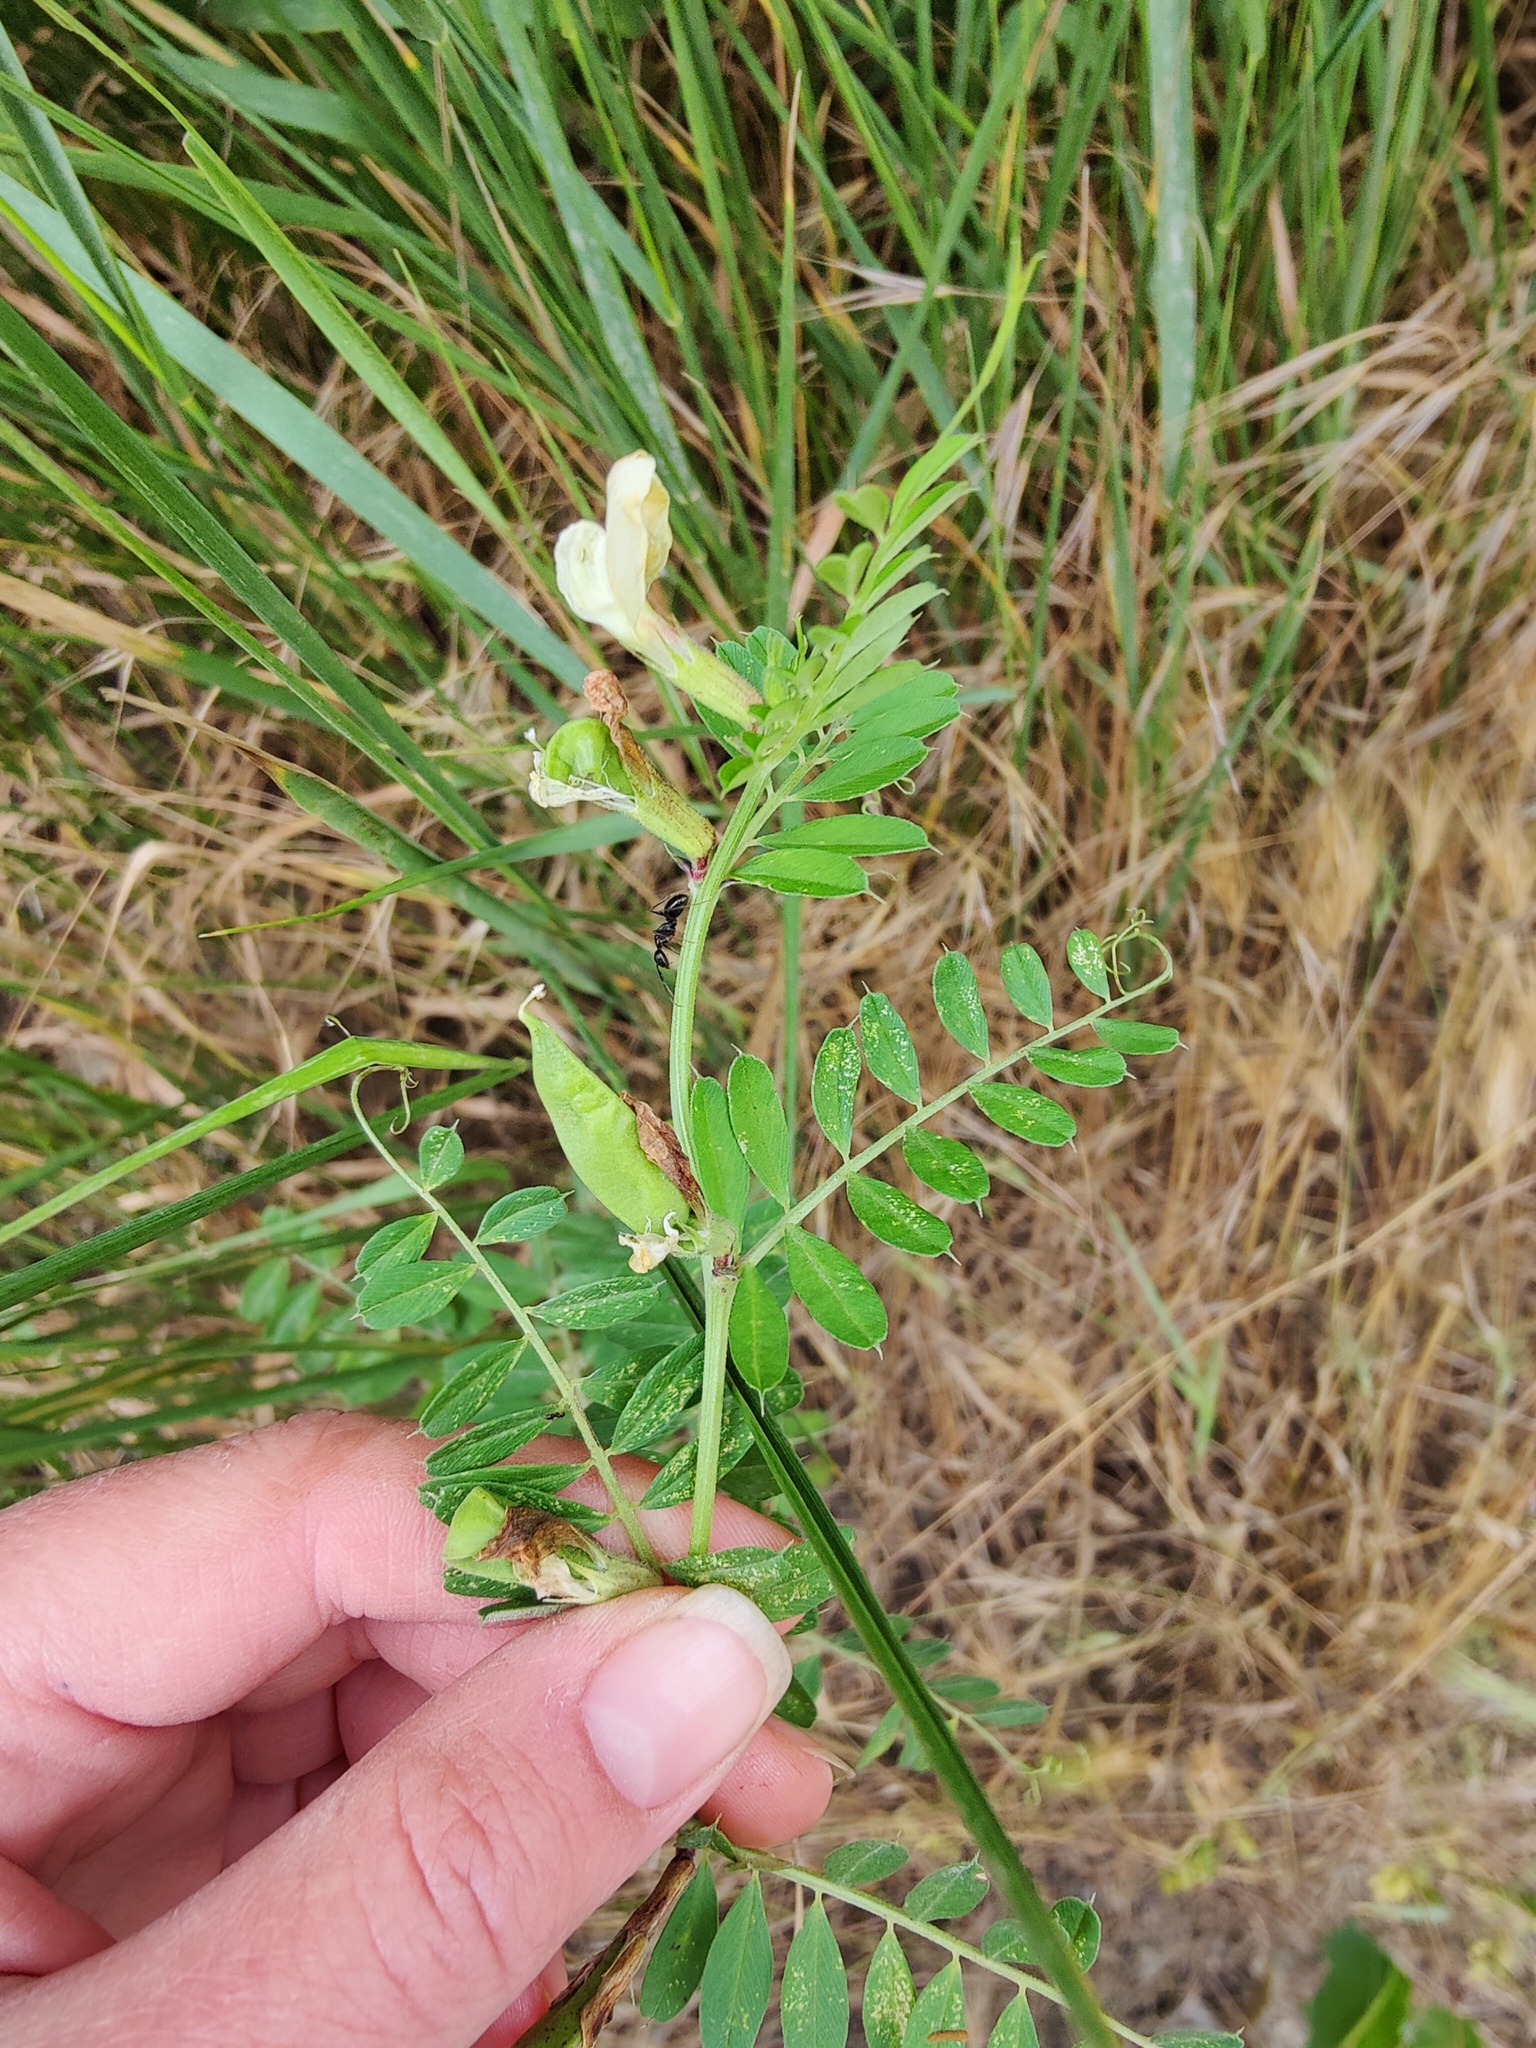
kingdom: Plantae
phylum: Tracheophyta
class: Magnoliopsida
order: Fabales
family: Fabaceae
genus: Vicia
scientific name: Vicia grandiflora
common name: Large yellow vetch
